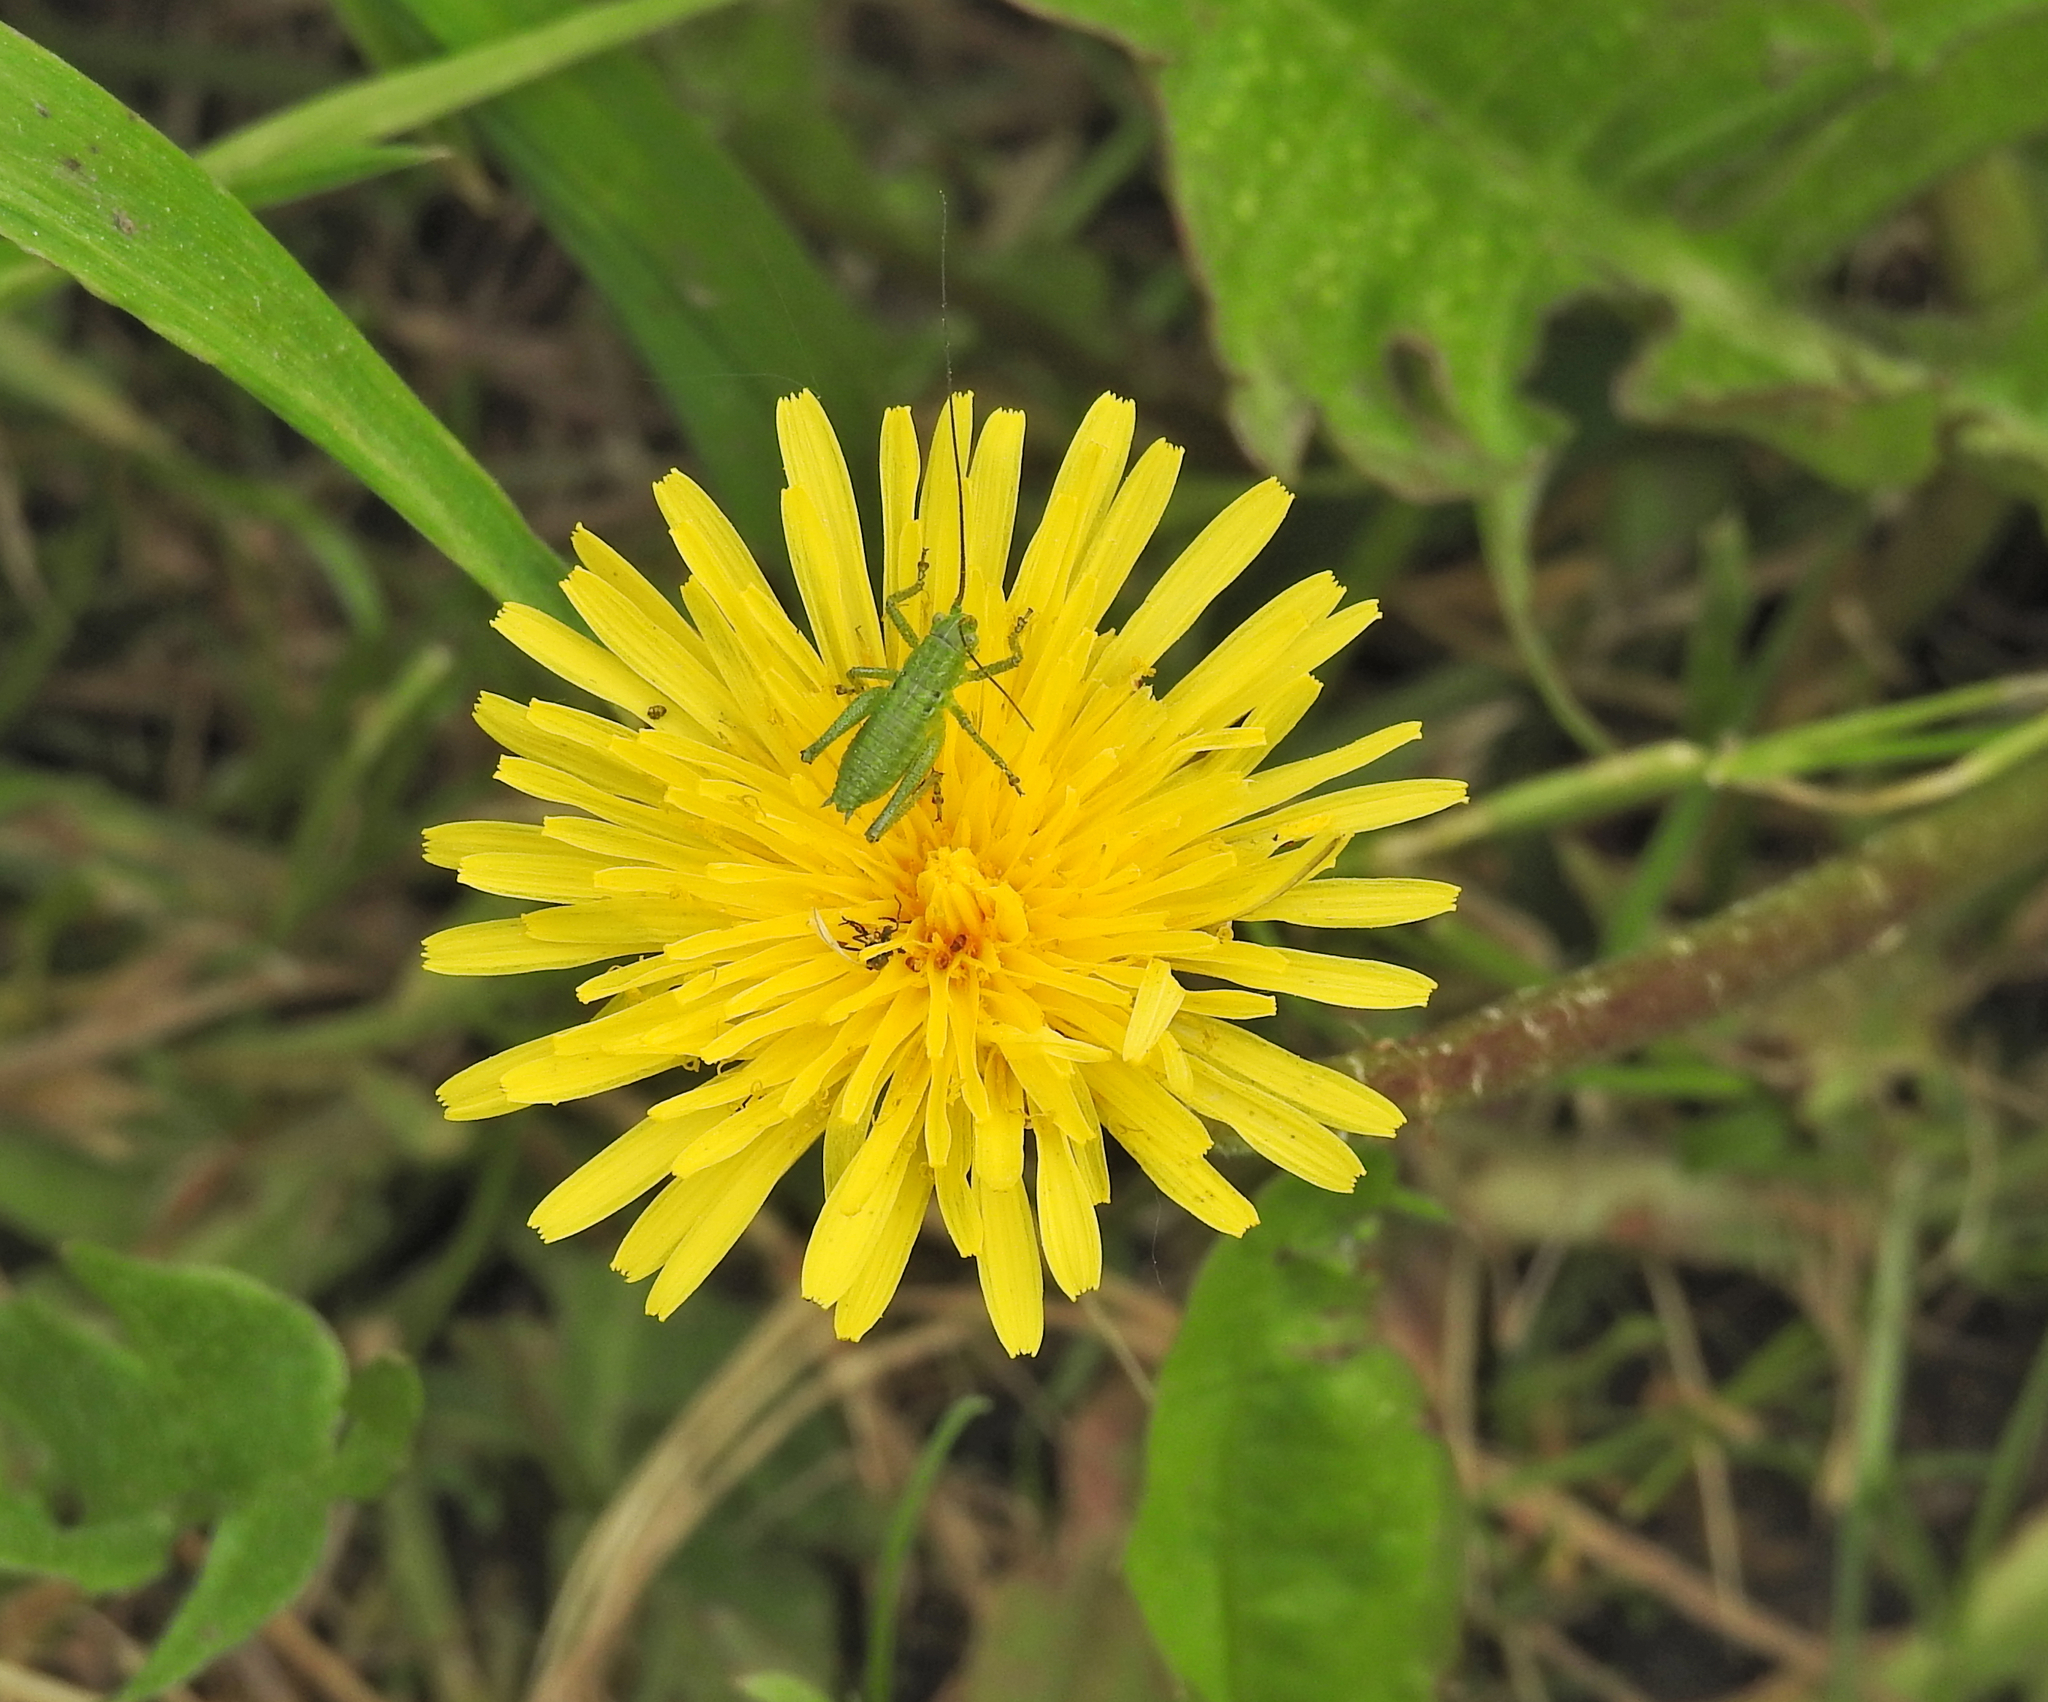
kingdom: Animalia
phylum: Arthropoda
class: Insecta
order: Orthoptera
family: Tettigoniidae
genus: Tettigonia
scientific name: Tettigonia cantans
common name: Upland green bush-cricket
